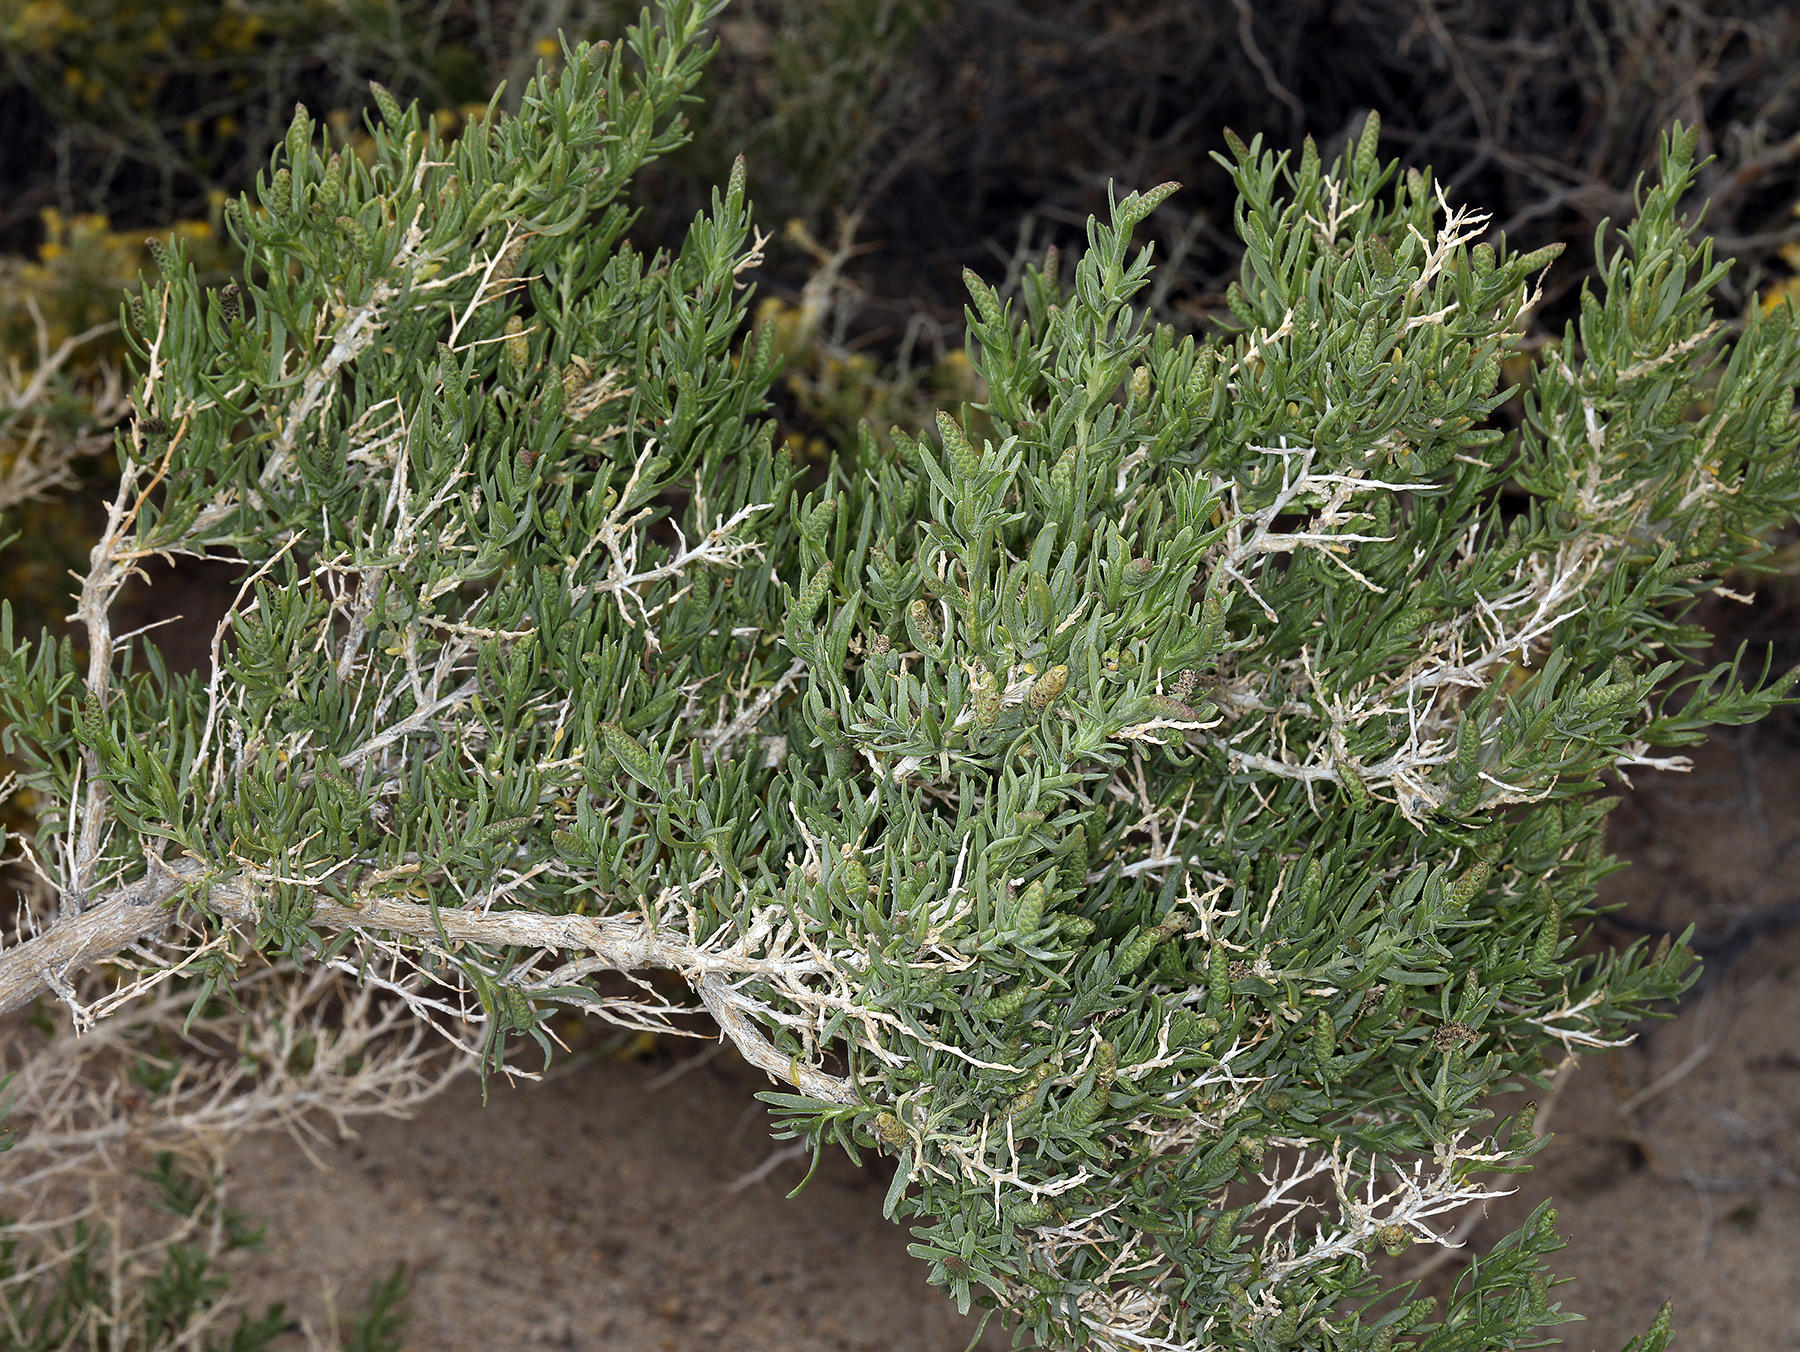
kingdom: Plantae
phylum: Tracheophyta
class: Magnoliopsida
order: Caryophyllales
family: Sarcobataceae
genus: Sarcobatus
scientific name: Sarcobatus vermiculatus
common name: Greasewood
